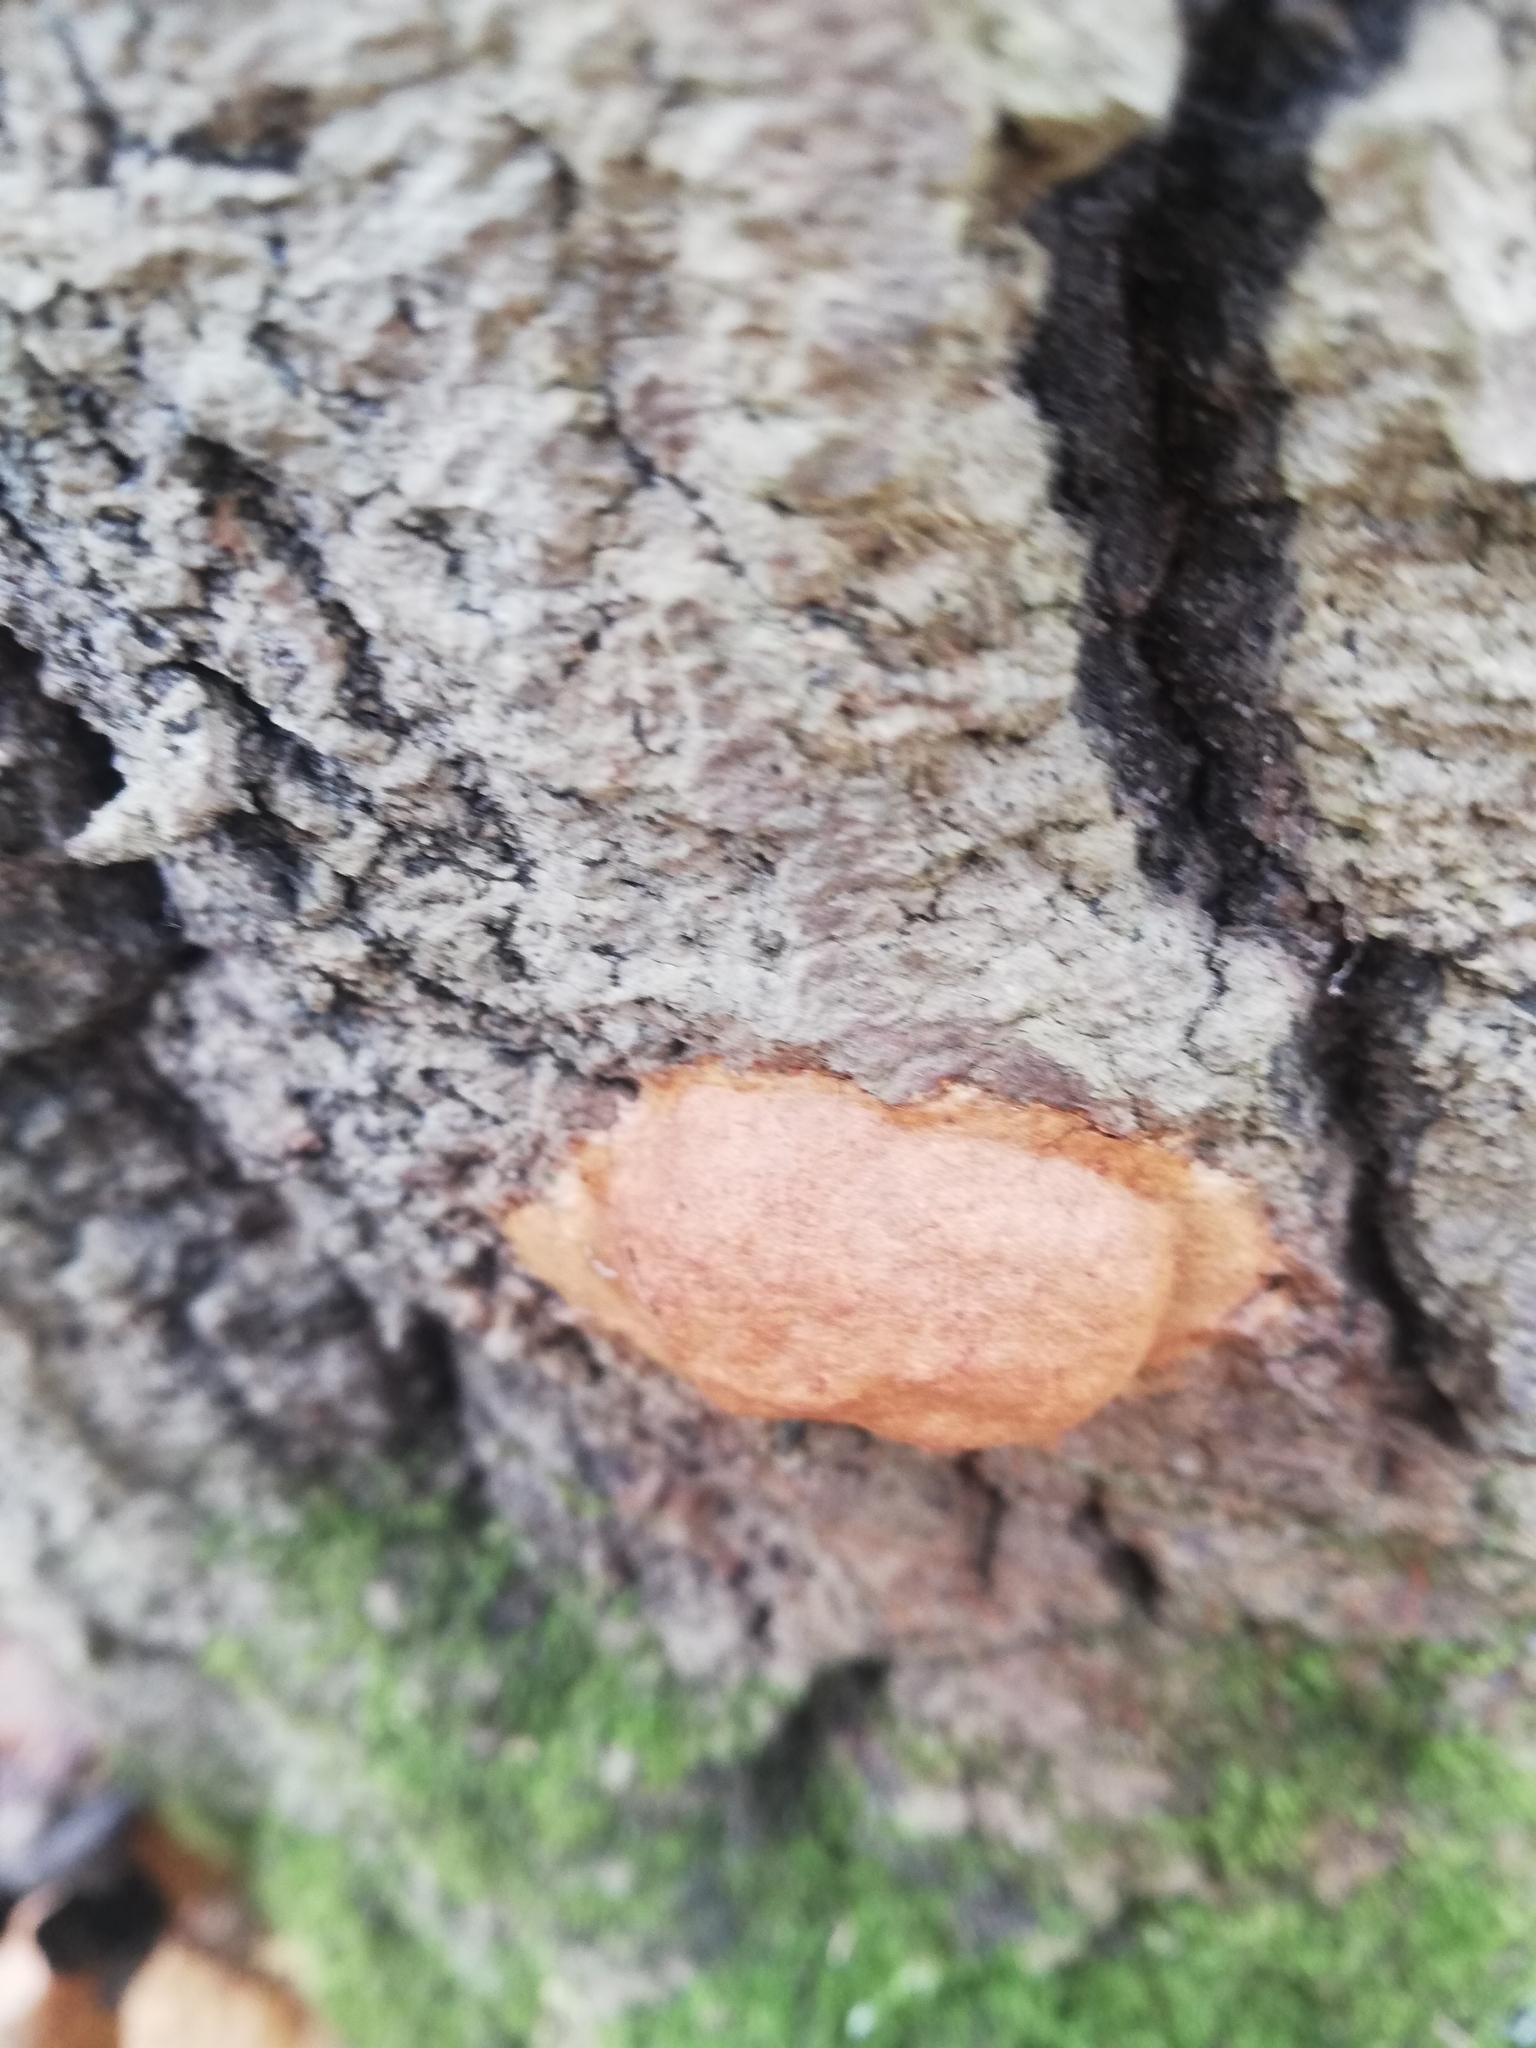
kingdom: Protozoa
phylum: Mycetozoa
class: Myxomycetes
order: Physarales
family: Physaraceae
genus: Fuligo
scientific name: Fuligo leviderma
